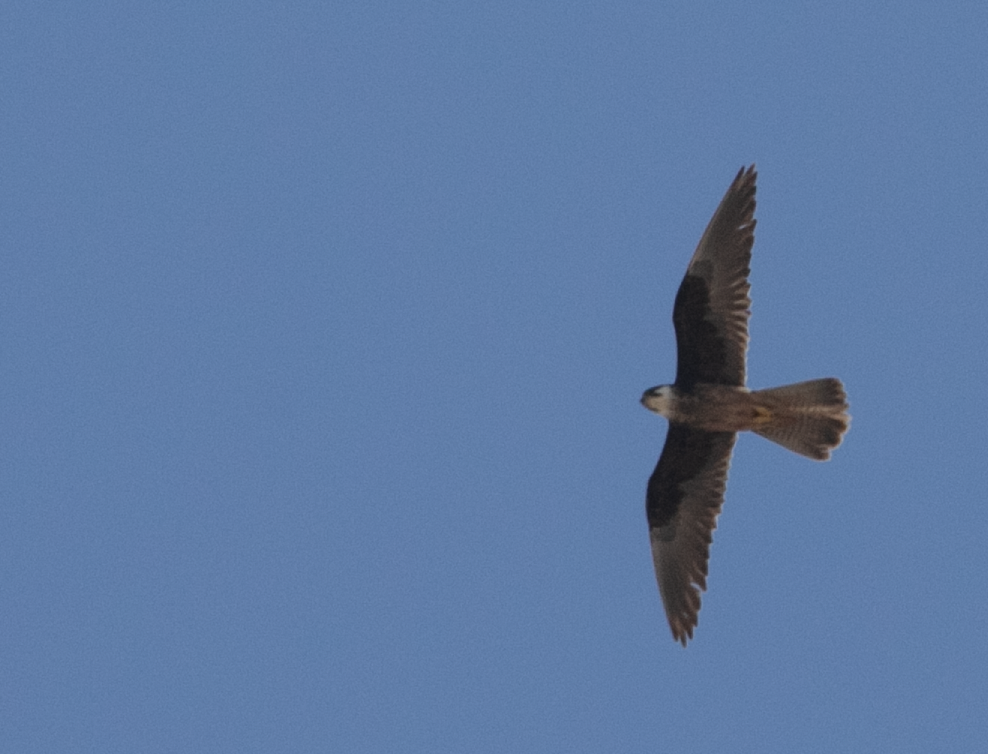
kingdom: Animalia
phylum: Chordata
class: Aves
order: Falconiformes
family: Falconidae
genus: Falco
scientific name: Falco eleonorae
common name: Eleonora's falcon
